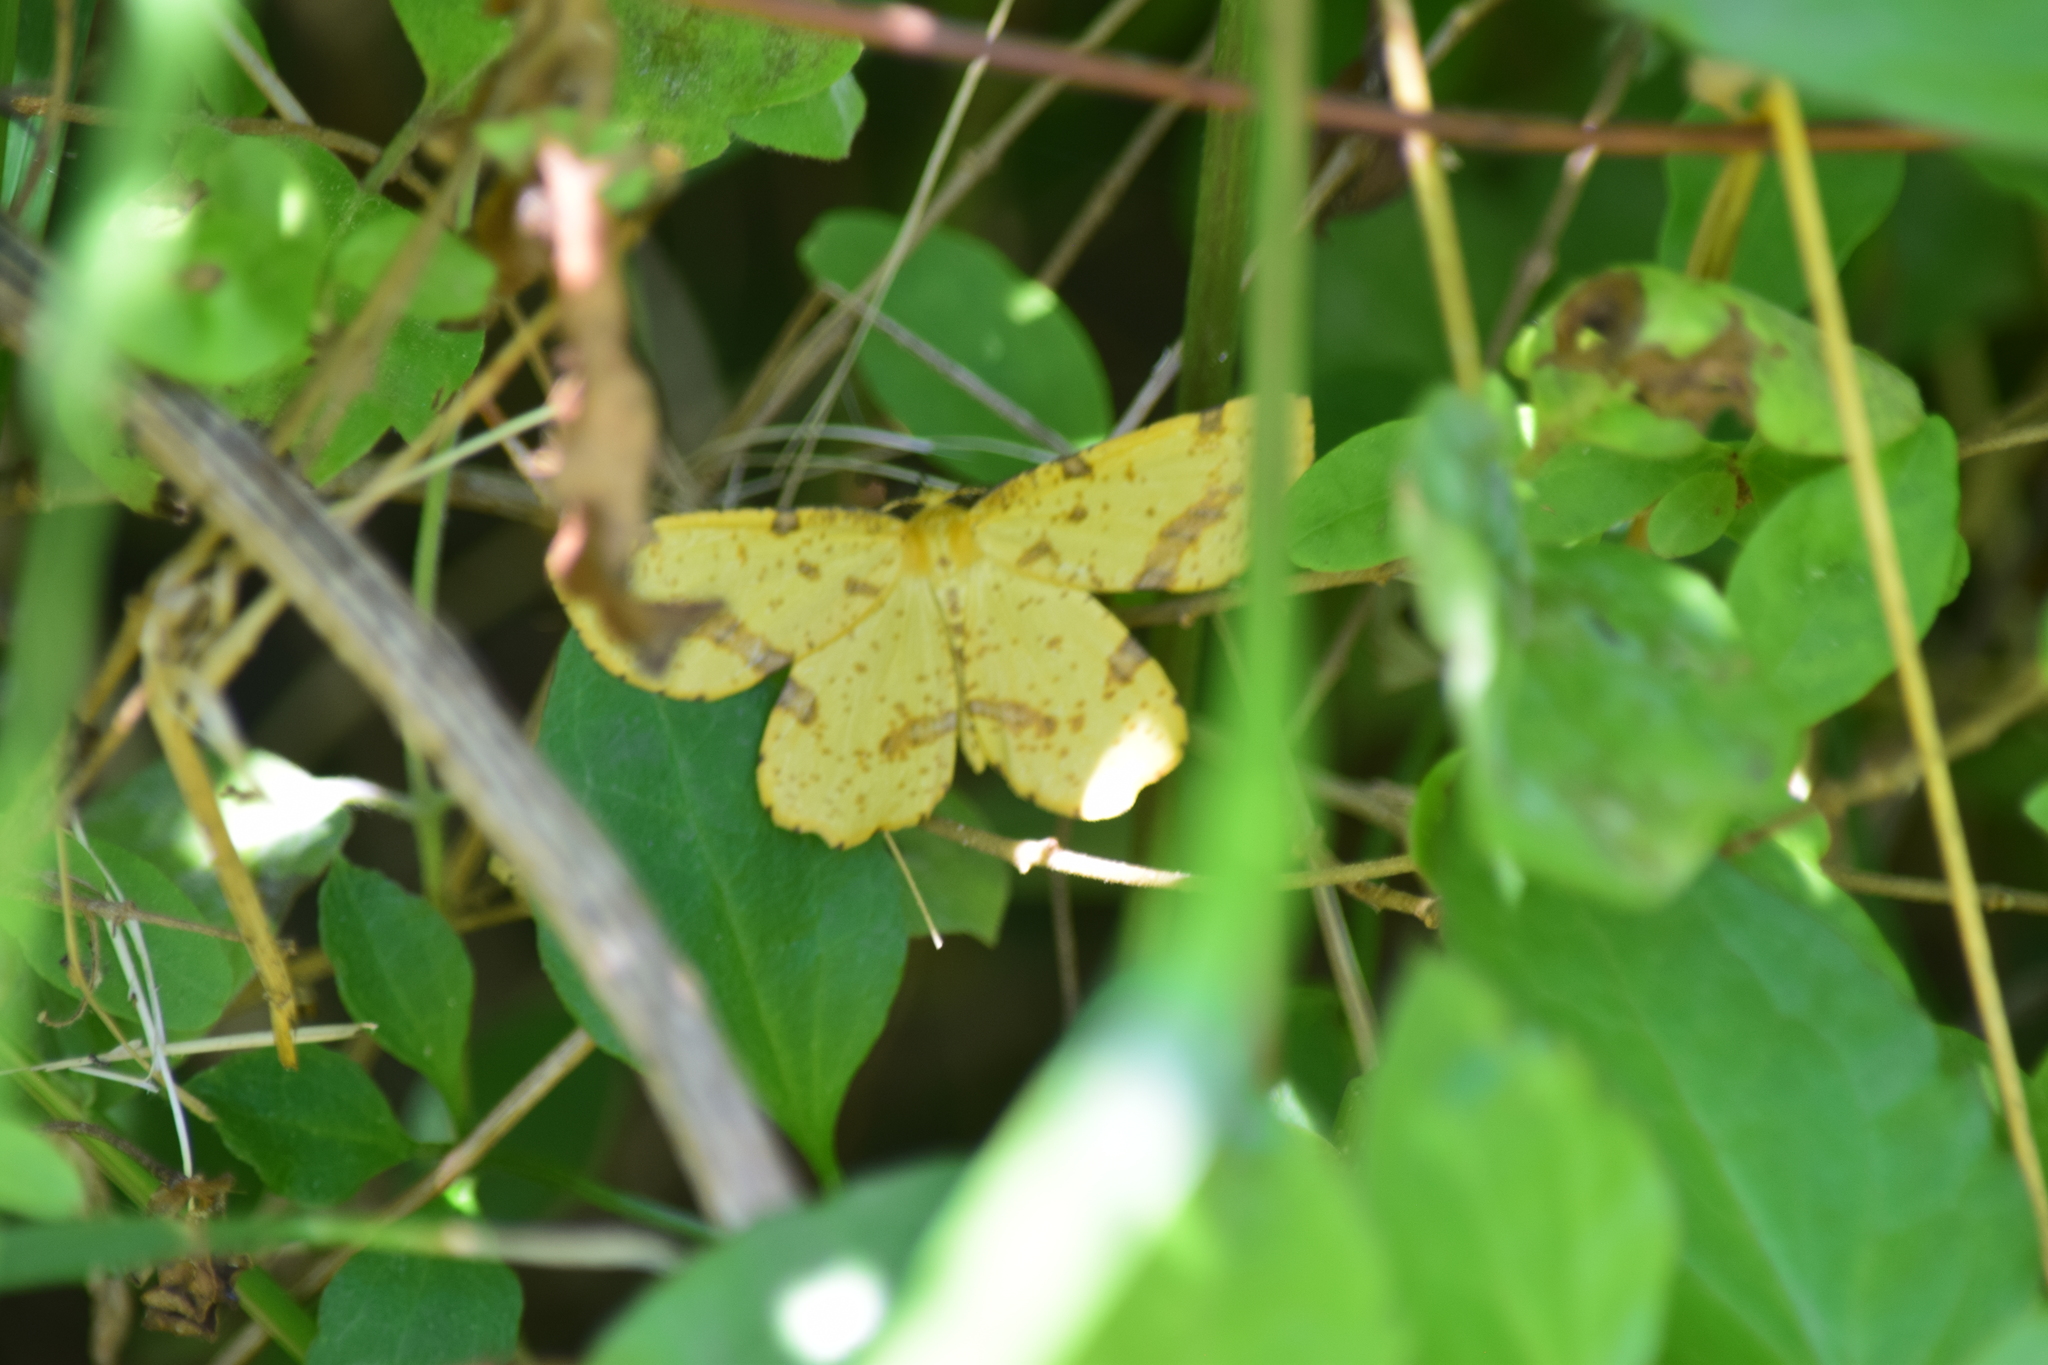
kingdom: Animalia
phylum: Arthropoda
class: Insecta
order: Lepidoptera
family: Geometridae
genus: Xanthotype
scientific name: Xanthotype
